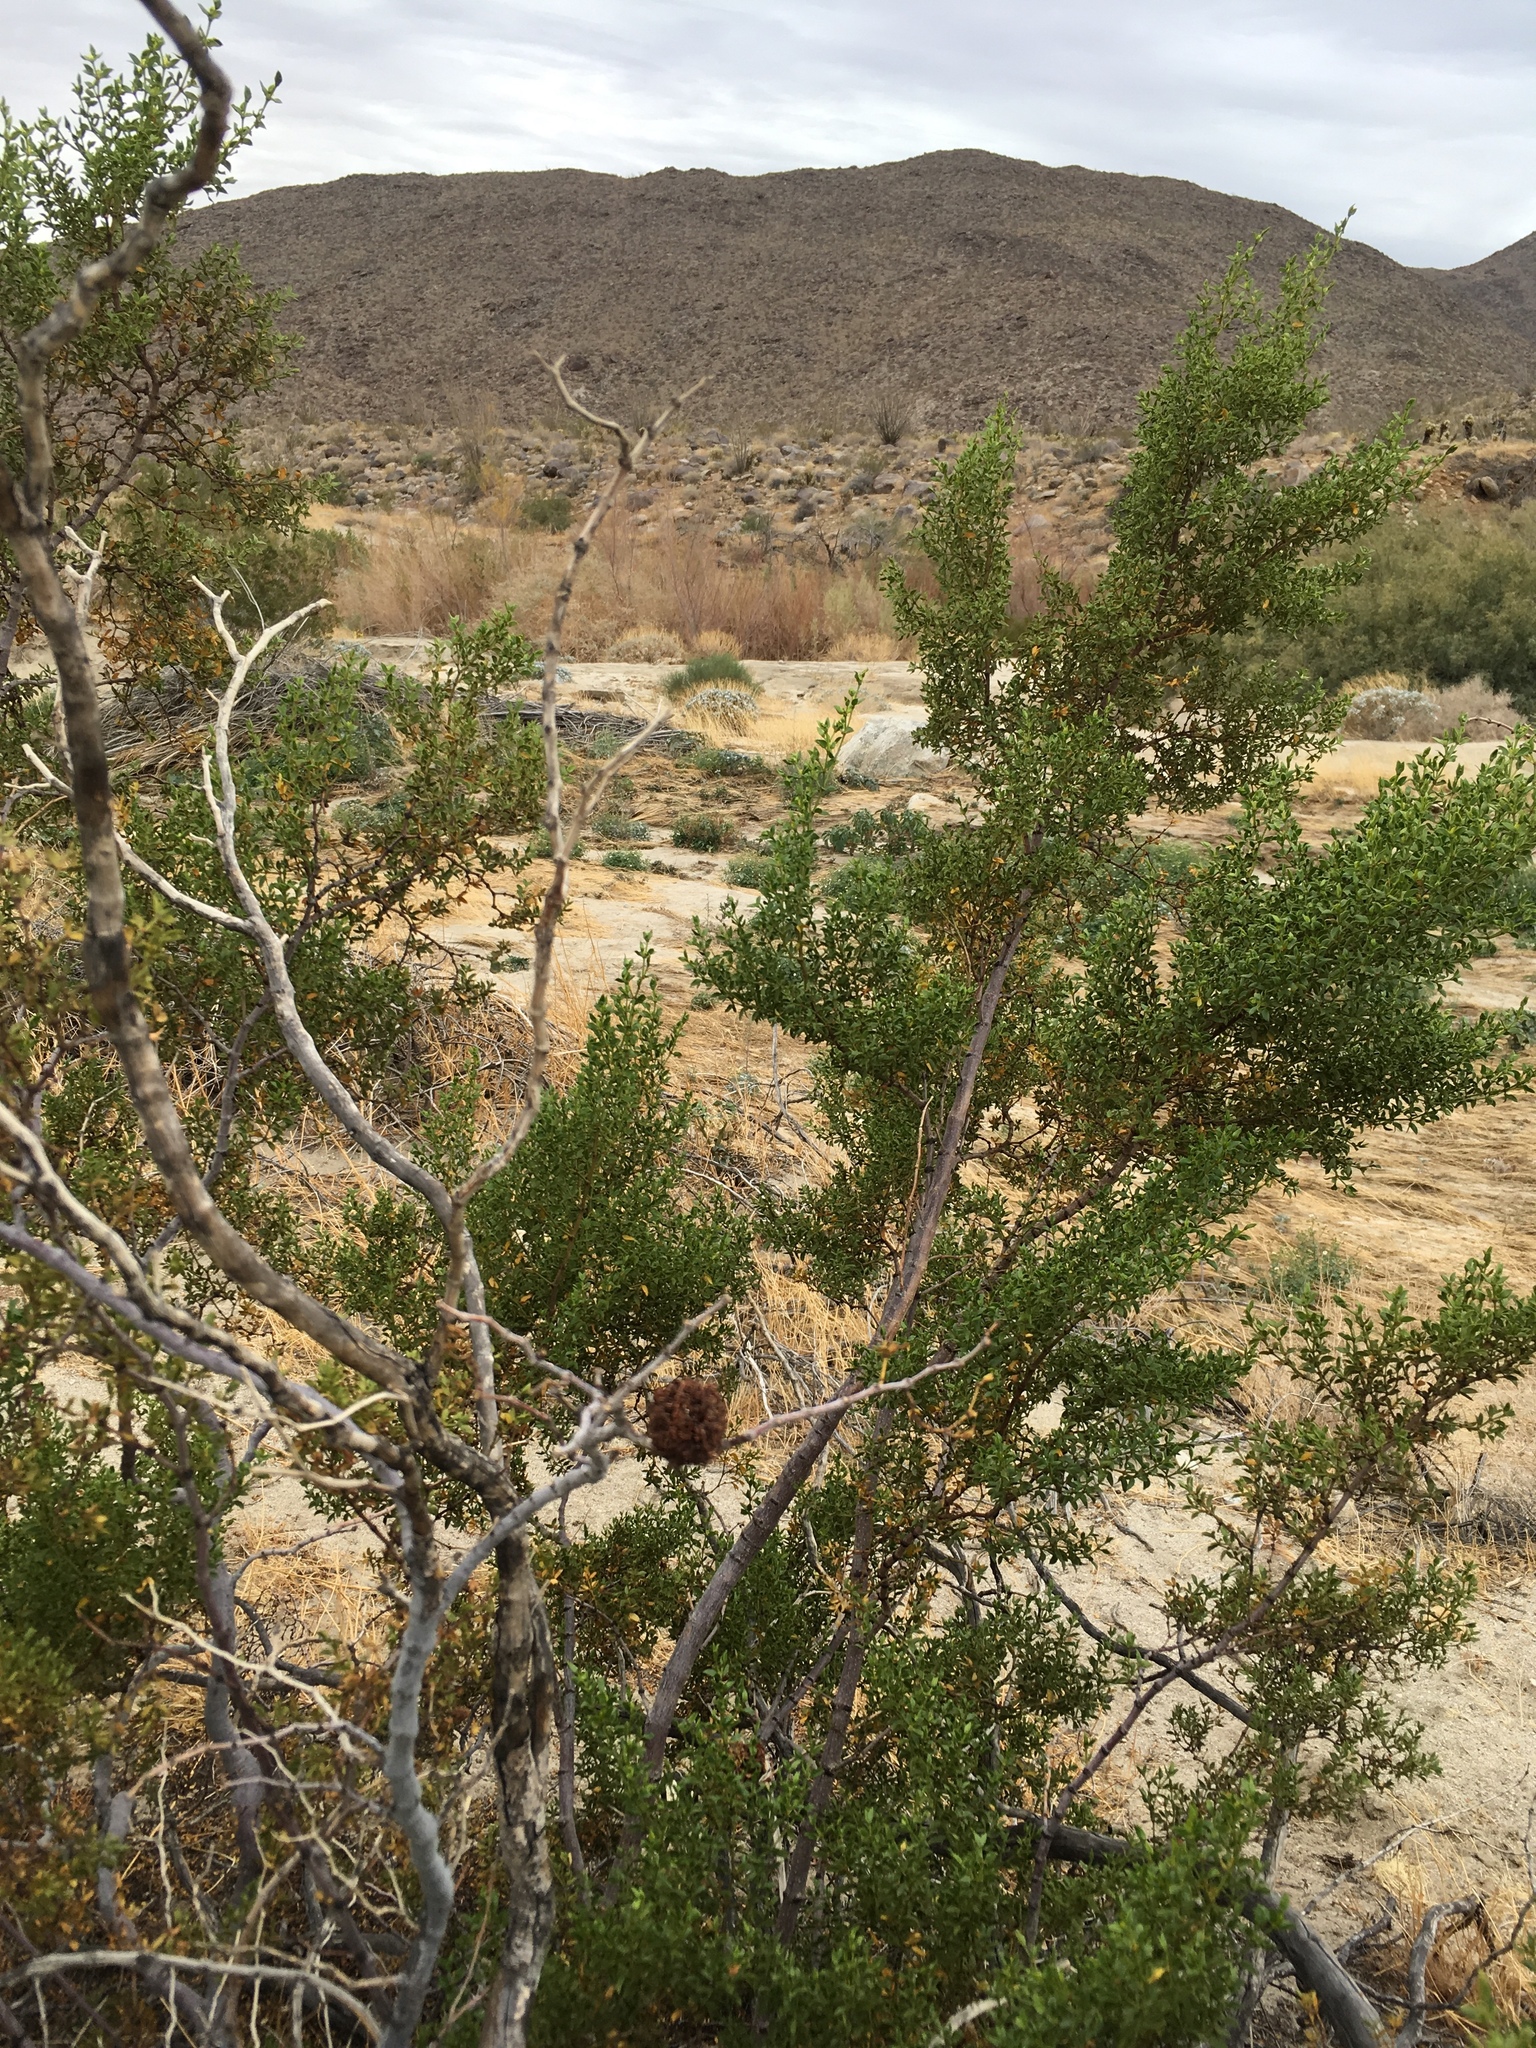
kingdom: Animalia
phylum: Arthropoda
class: Insecta
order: Diptera
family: Cecidomyiidae
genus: Asphondylia
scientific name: Asphondylia auripila
